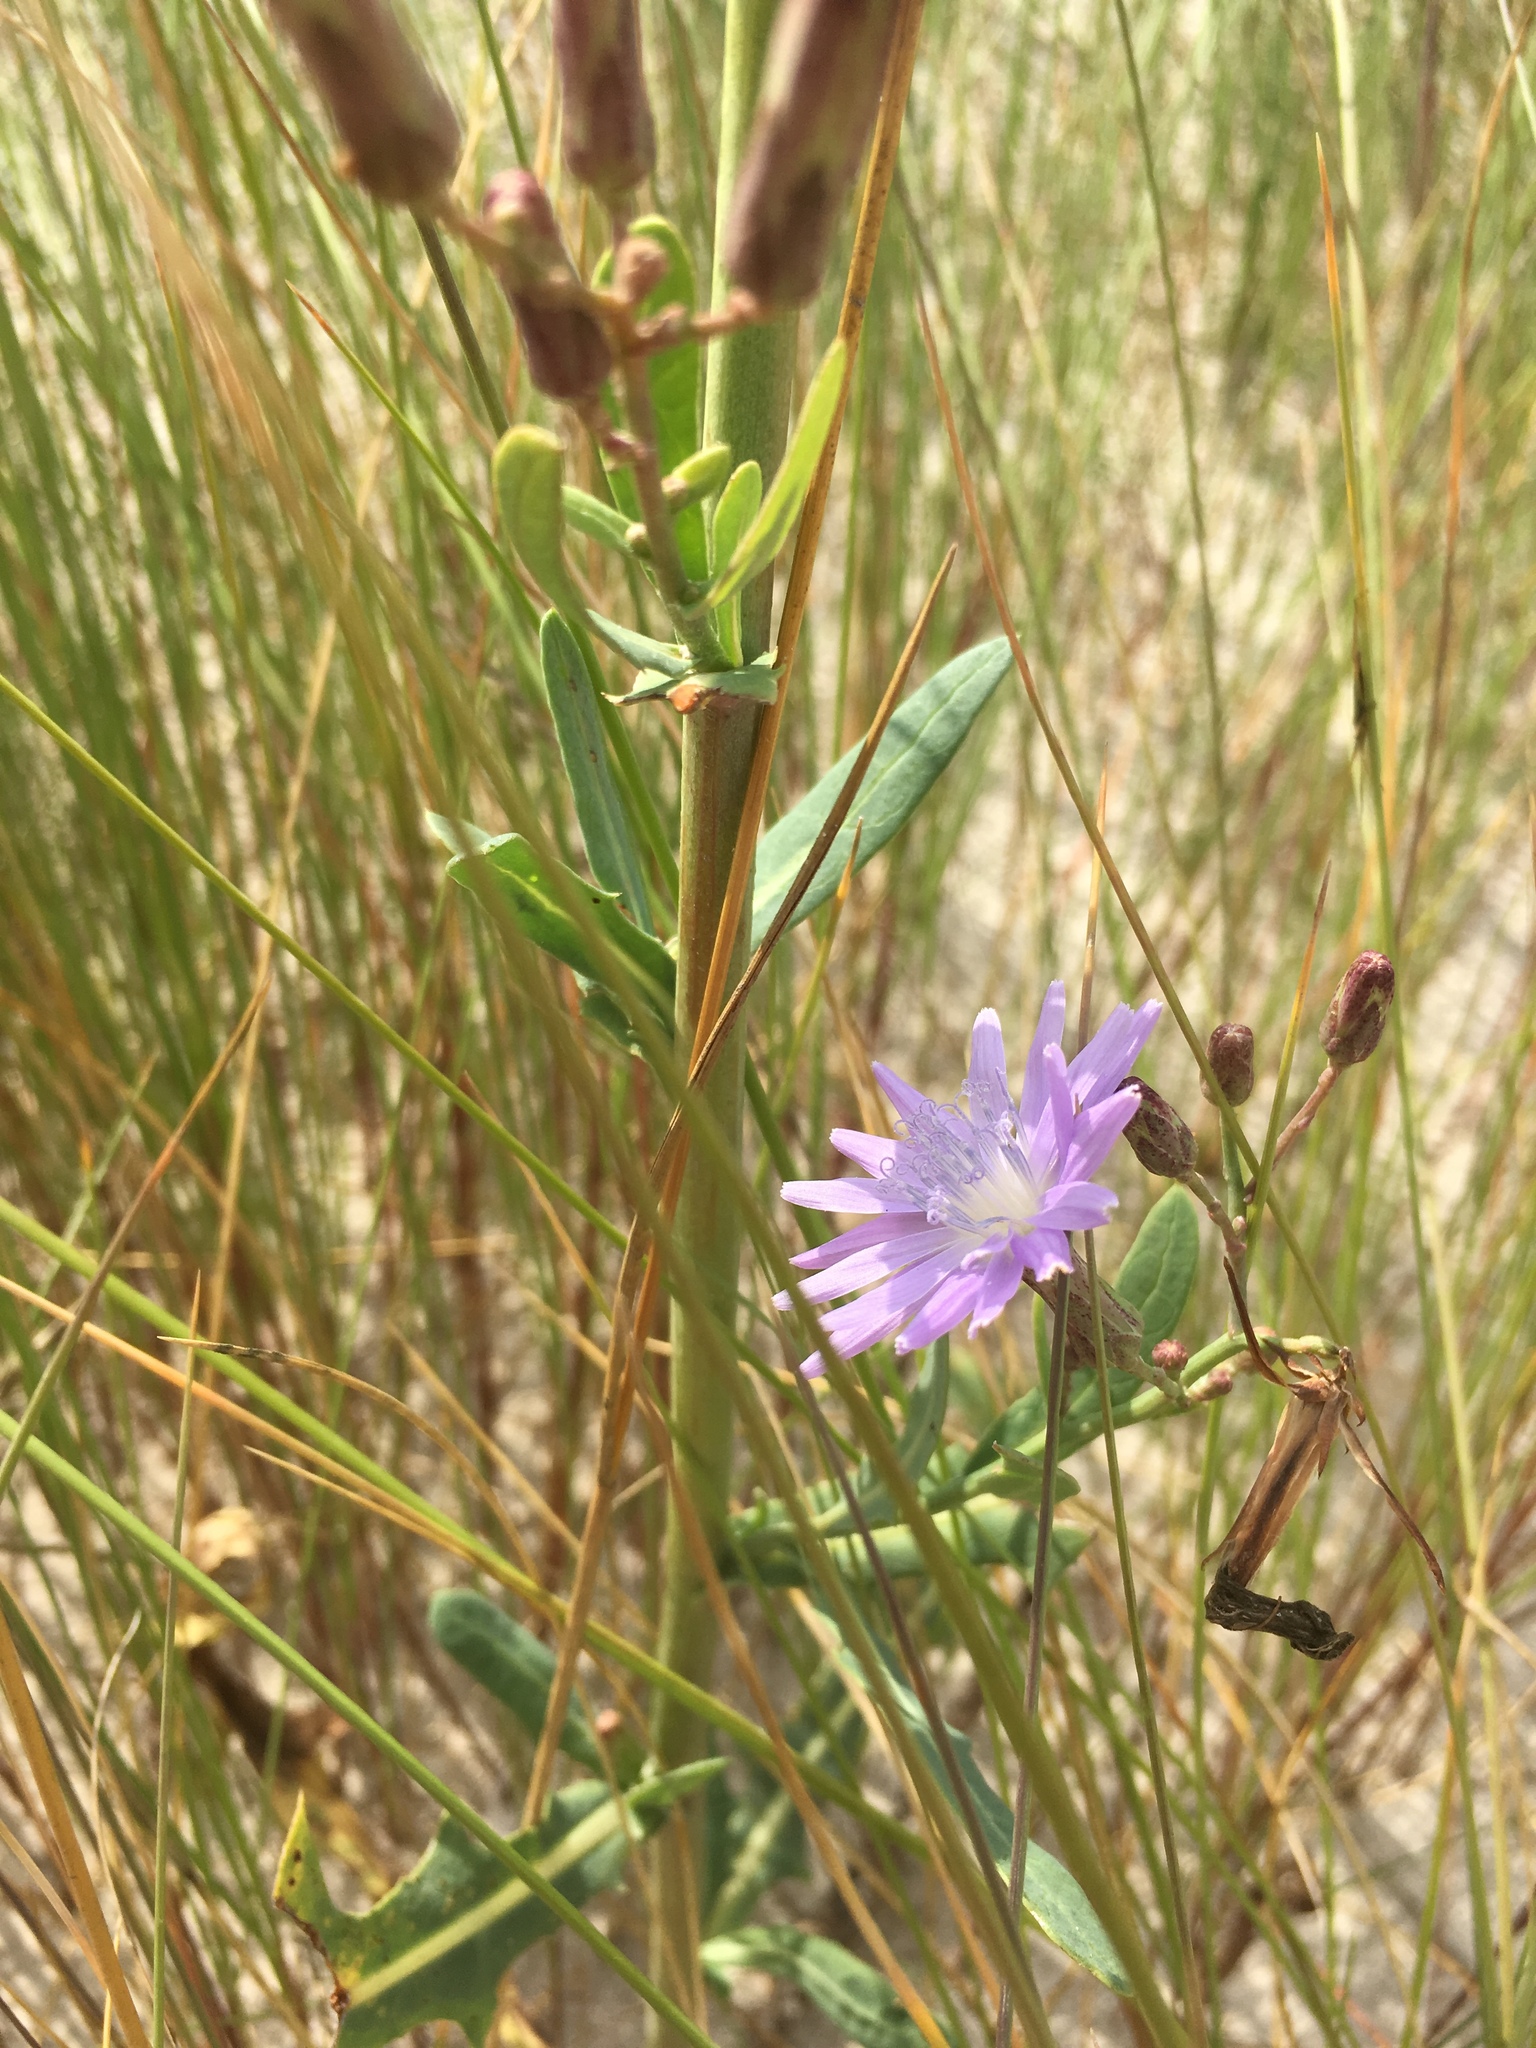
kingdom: Plantae
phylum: Tracheophyta
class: Magnoliopsida
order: Asterales
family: Asteraceae
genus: Lactuca
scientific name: Lactuca tatarica
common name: Blue lettuce
